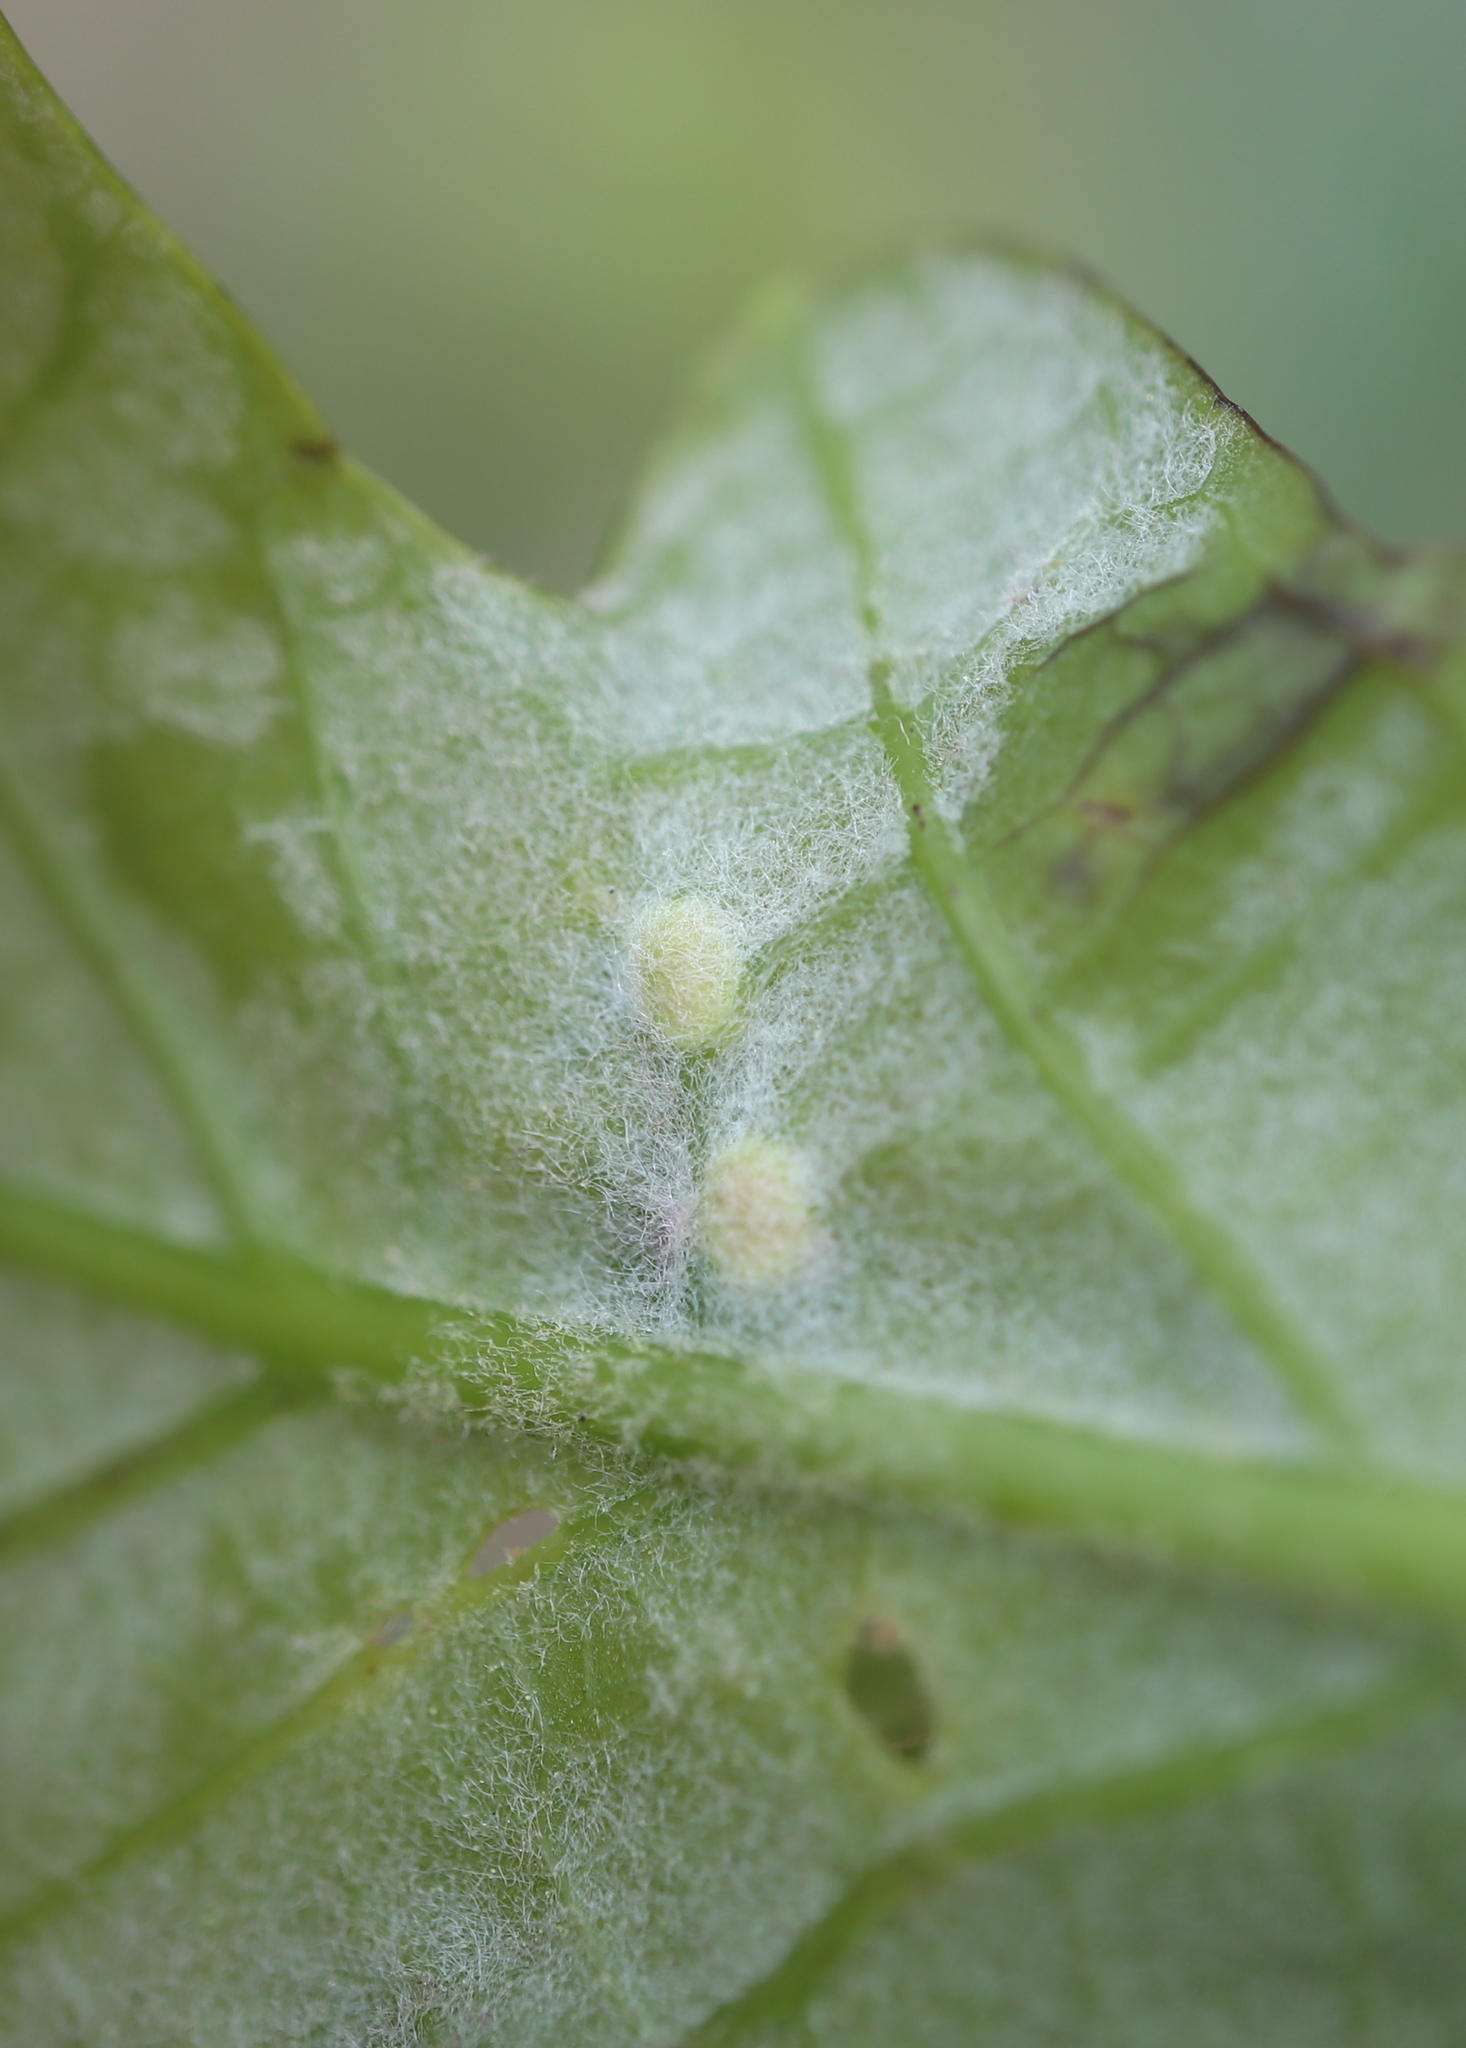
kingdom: Animalia
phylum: Arthropoda
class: Insecta
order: Hymenoptera
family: Cynipidae
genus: Neuroterus
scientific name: Neuroterus quercusverrucarum
